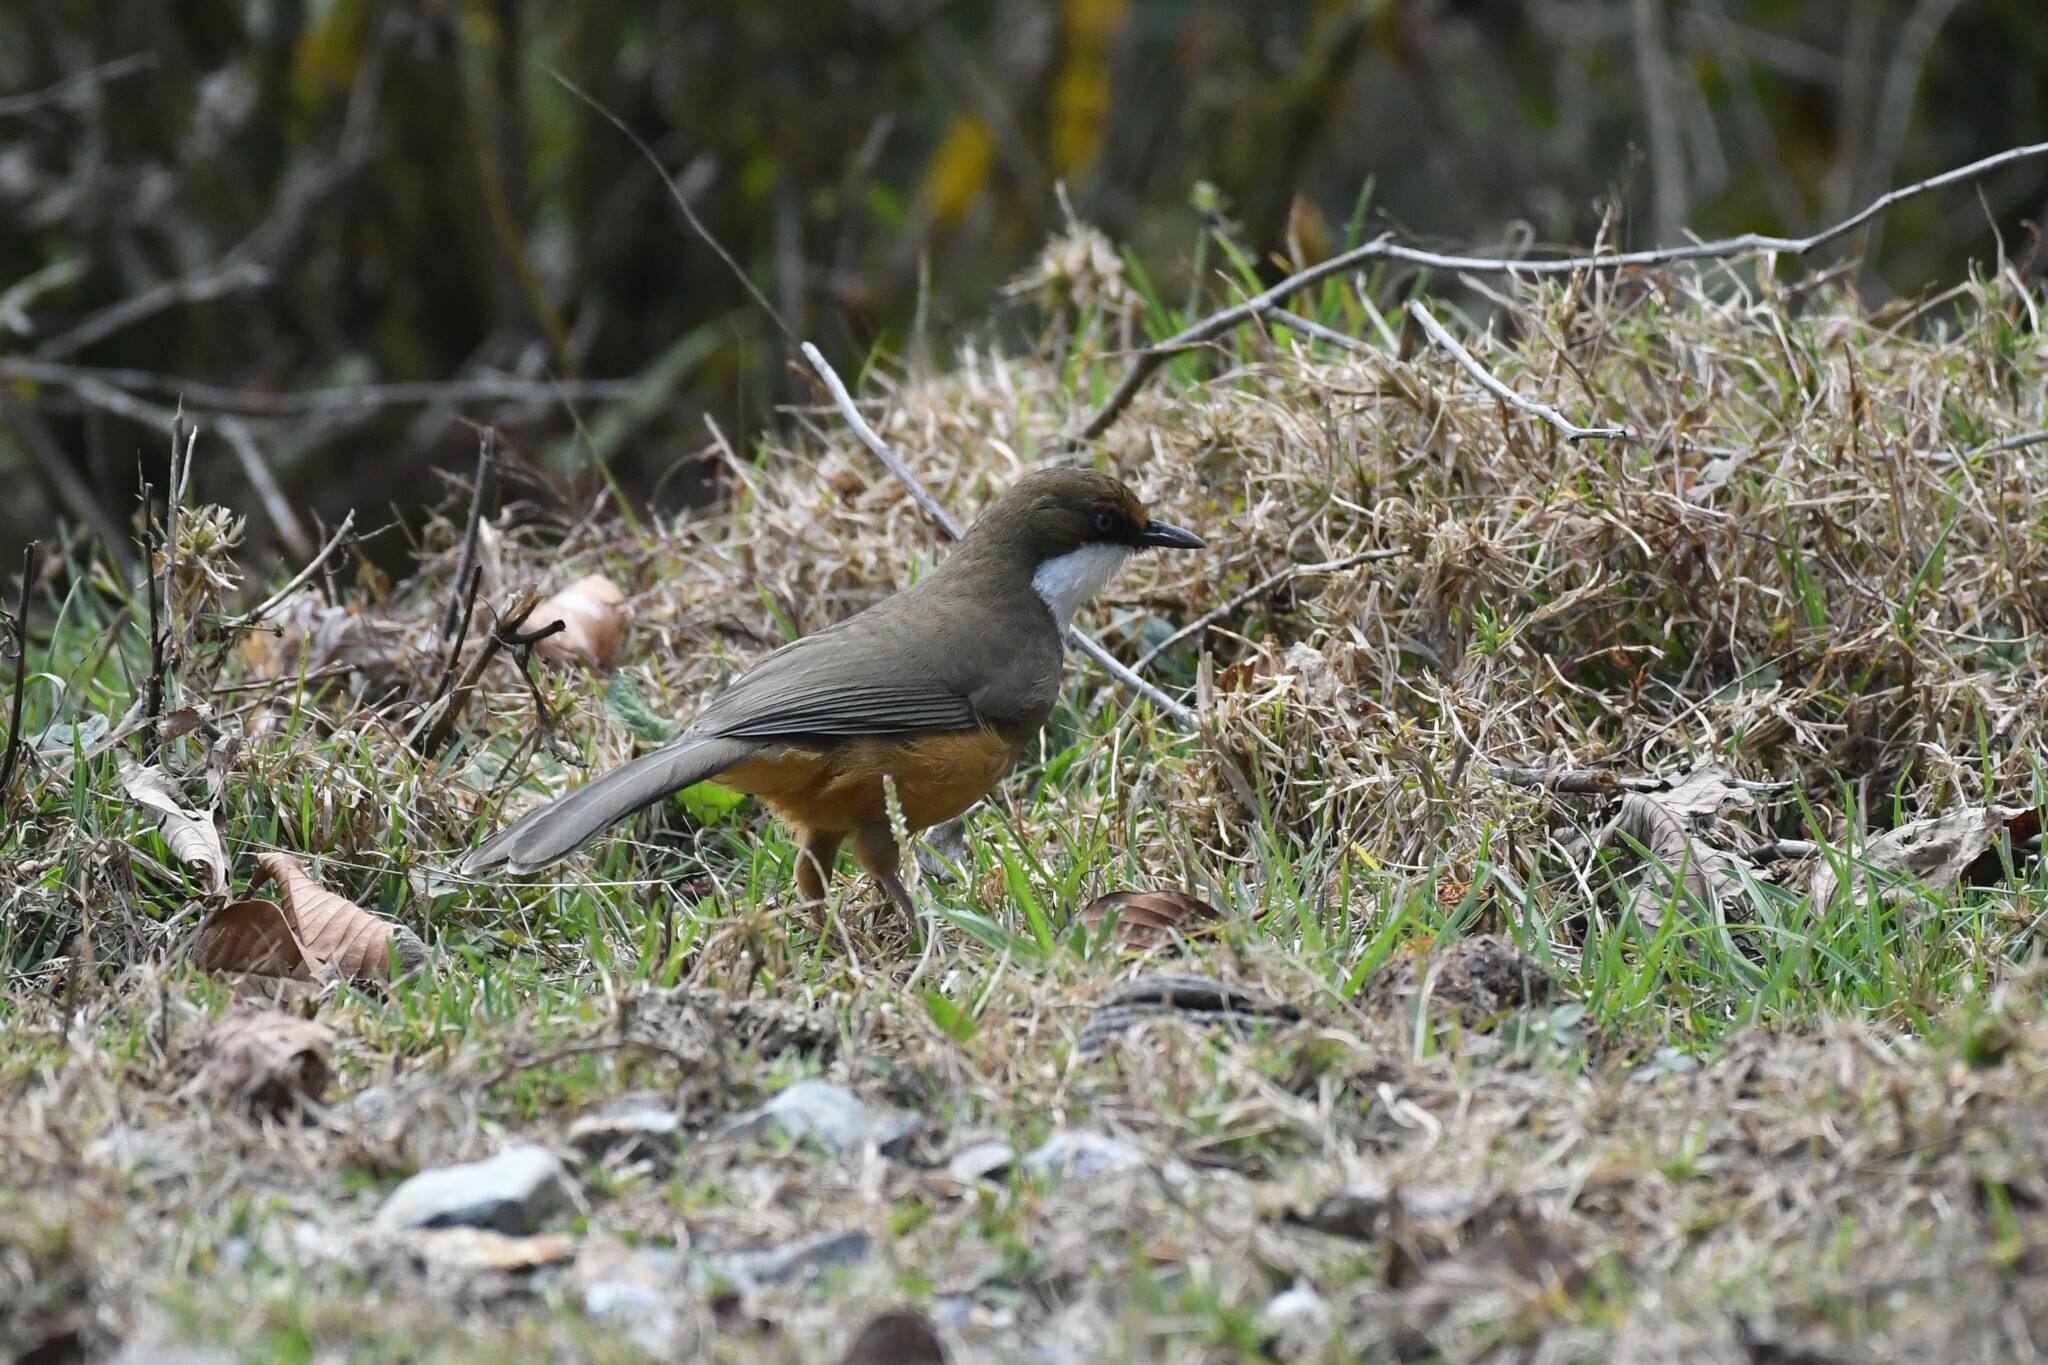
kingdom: Animalia
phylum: Chordata
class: Aves
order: Passeriformes
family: Leiothrichidae
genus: Garrulax
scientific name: Garrulax albogularis
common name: White-throated laughingthrush
